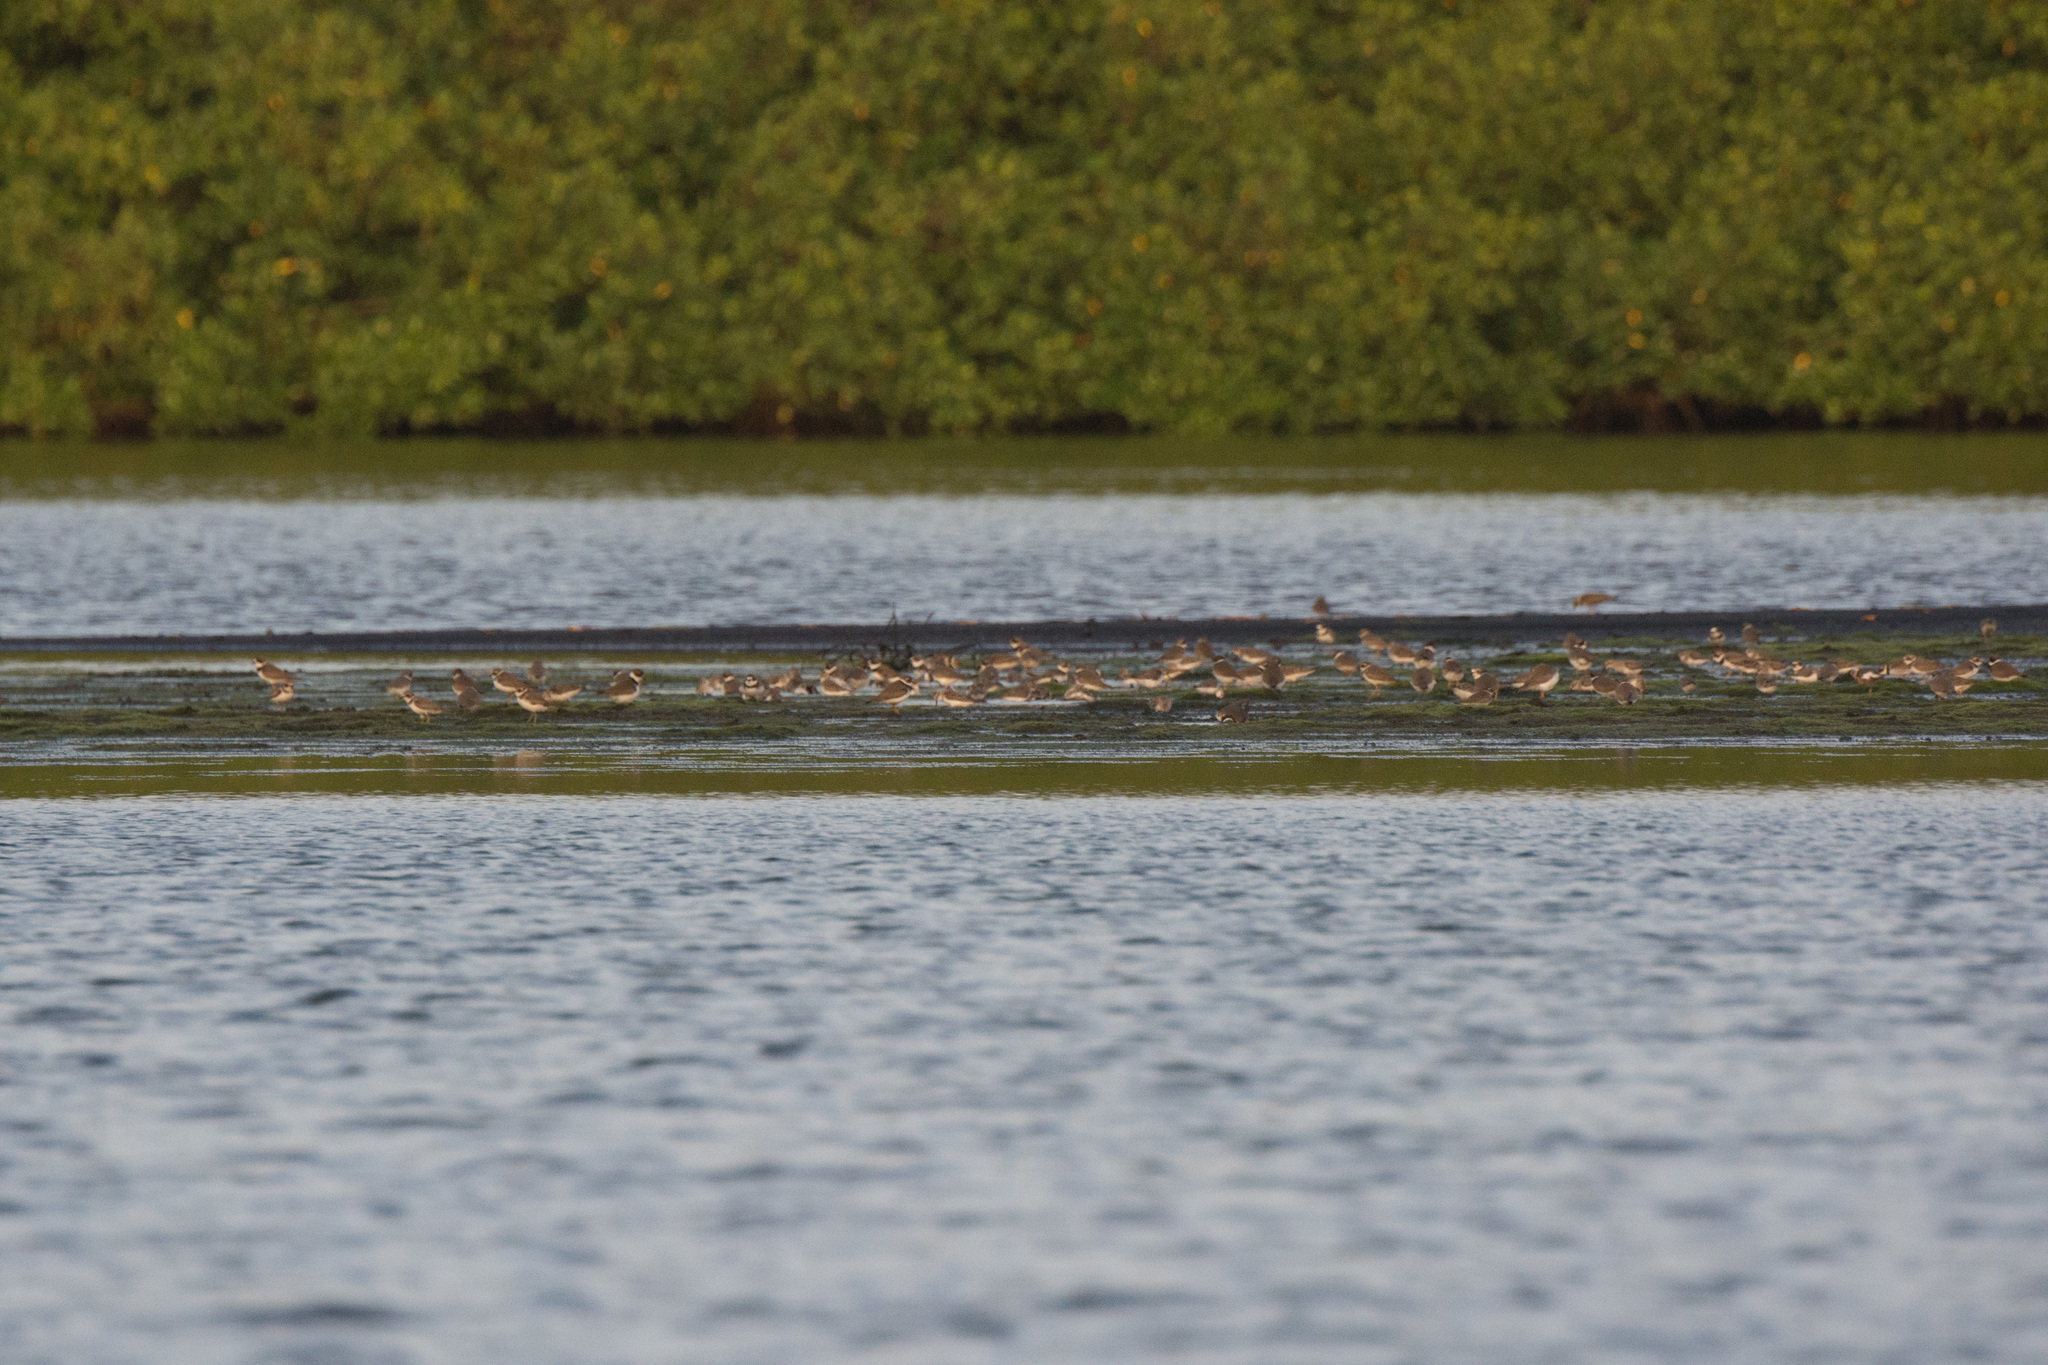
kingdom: Animalia
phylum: Chordata
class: Aves
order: Charadriiformes
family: Charadriidae
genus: Charadrius
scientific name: Charadrius semipalmatus
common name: Semipalmated plover
